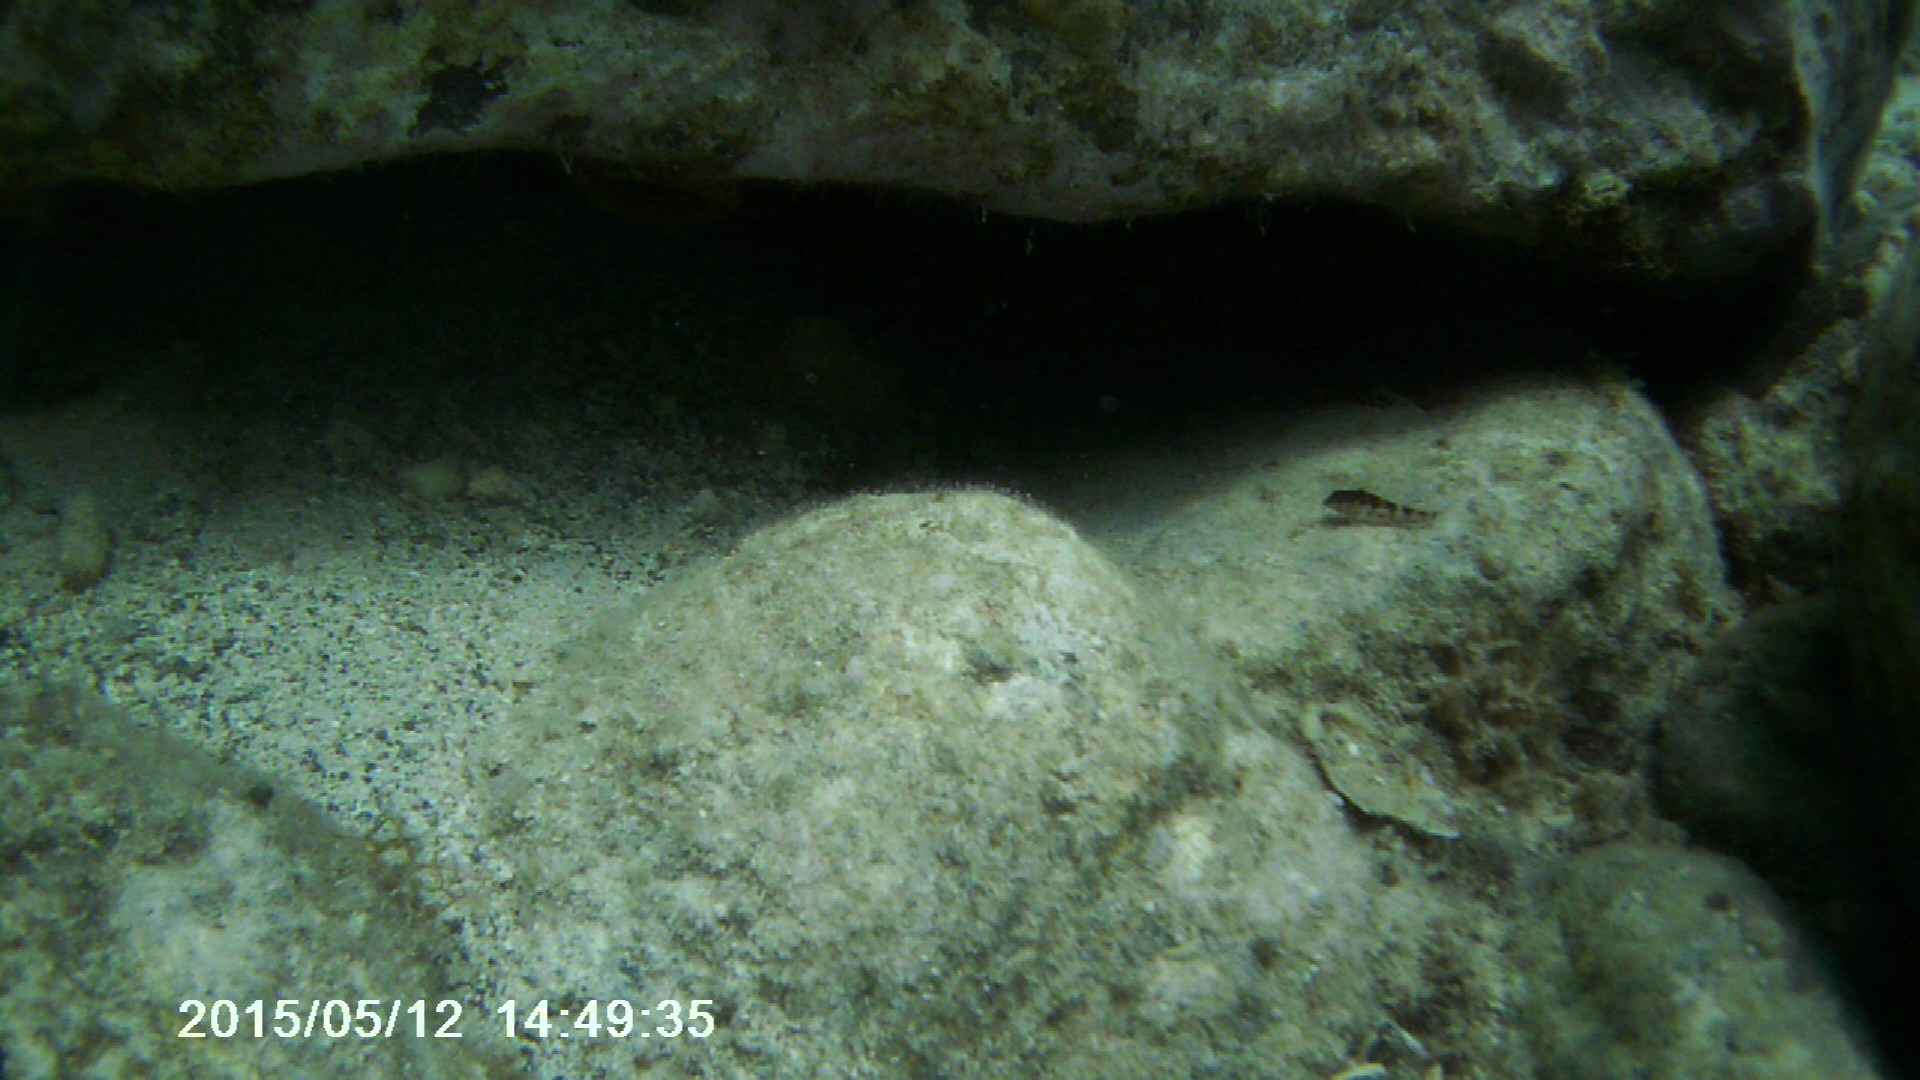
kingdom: Animalia
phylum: Chordata
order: Perciformes
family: Labrisomidae
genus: Malacoctenus
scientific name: Malacoctenus triangulatus
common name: Saddled blenny
